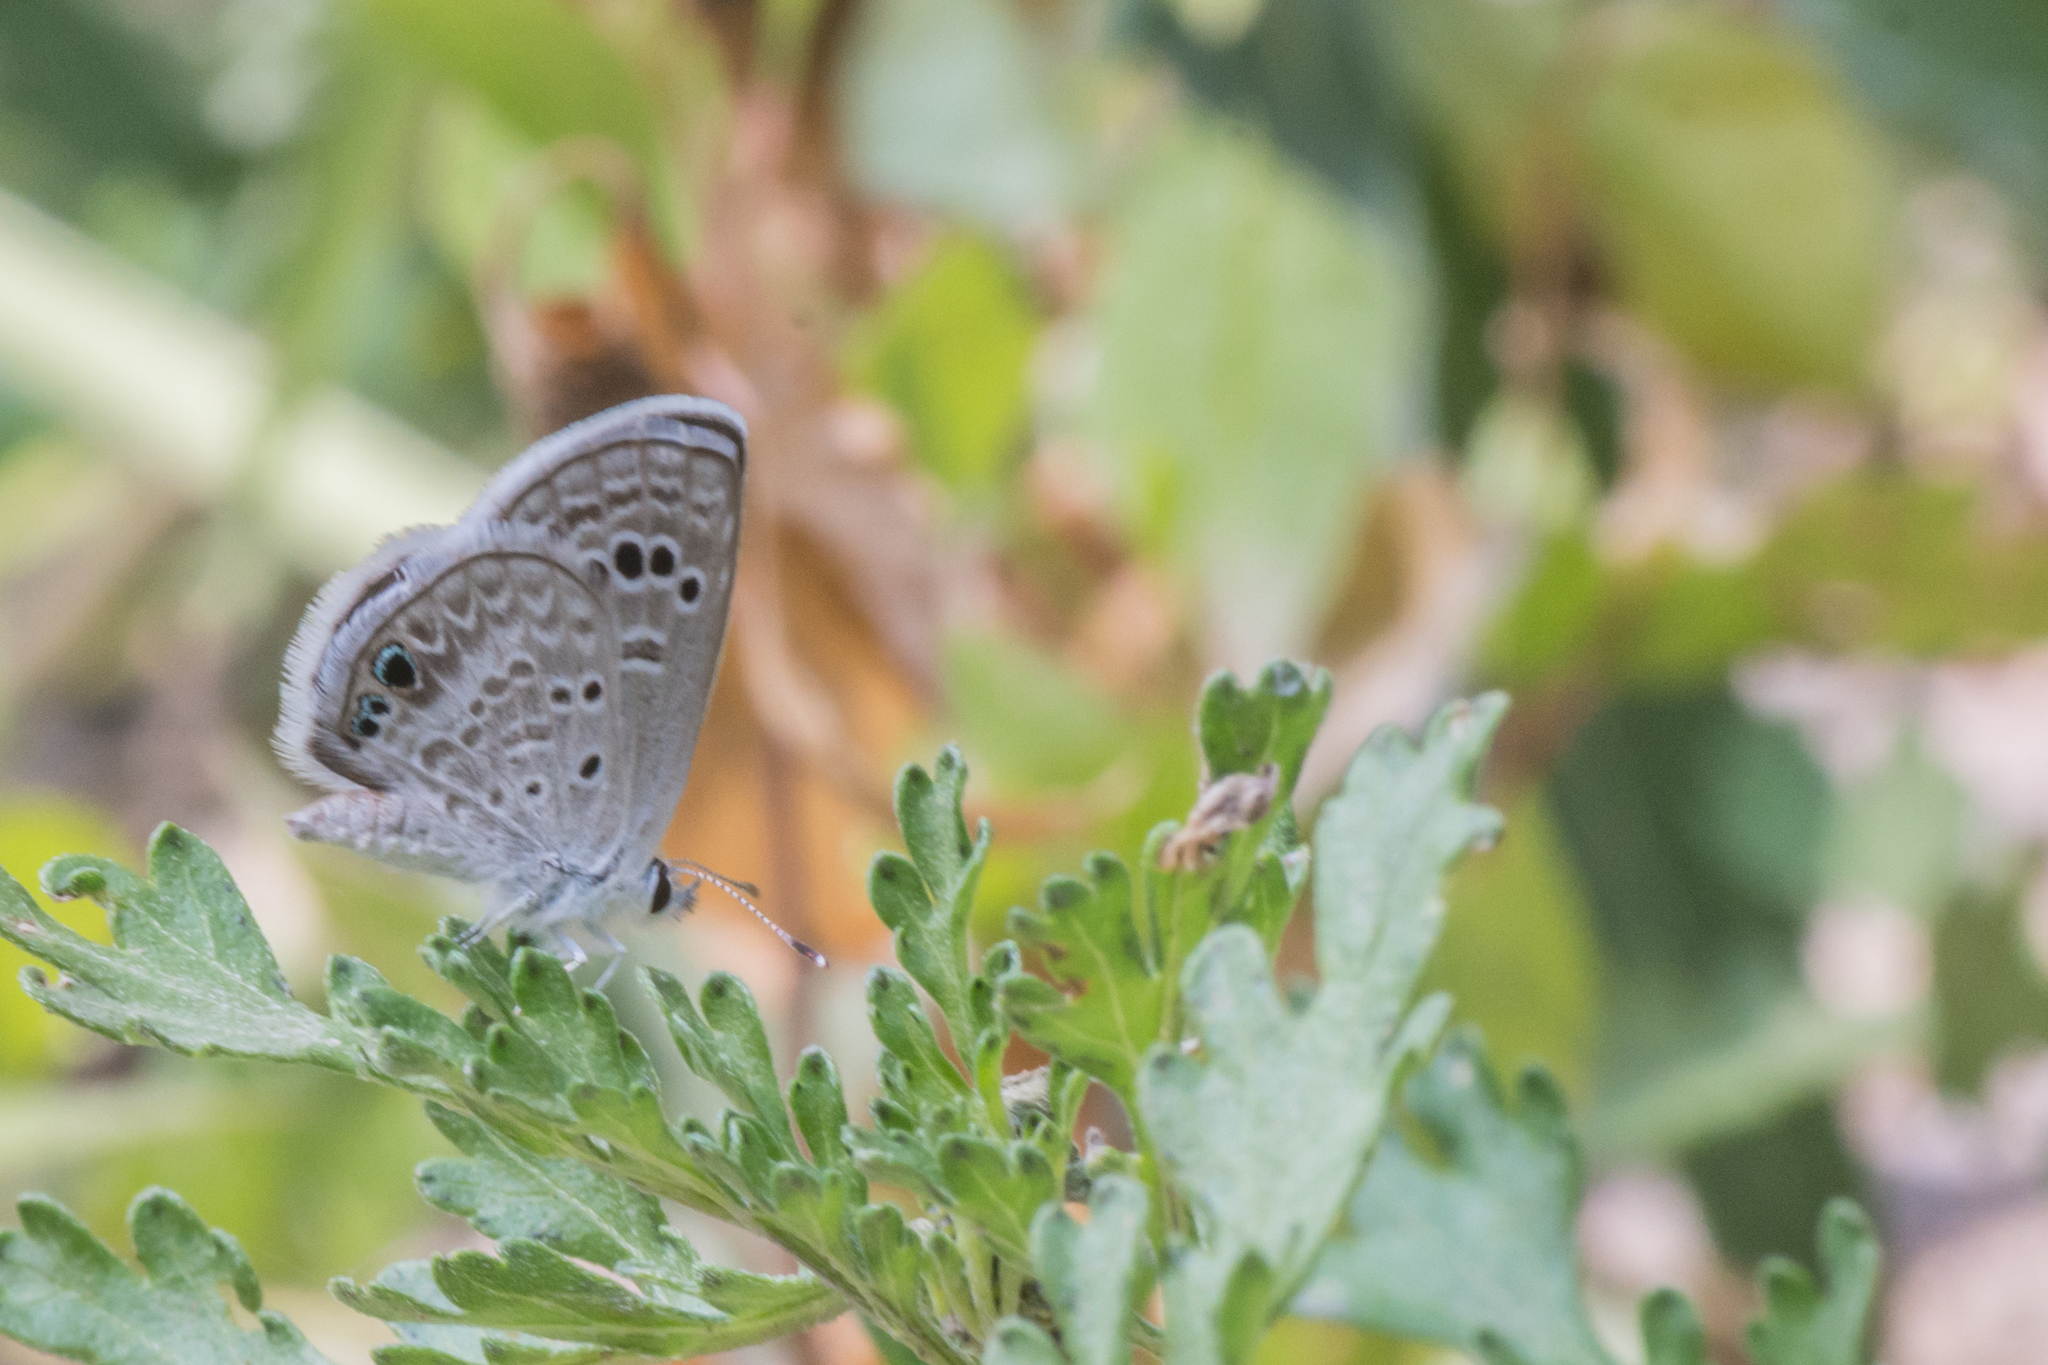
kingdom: Animalia
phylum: Arthropoda
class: Insecta
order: Lepidoptera
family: Lycaenidae
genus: Echinargus
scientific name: Echinargus isola
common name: Reakirt's blue
